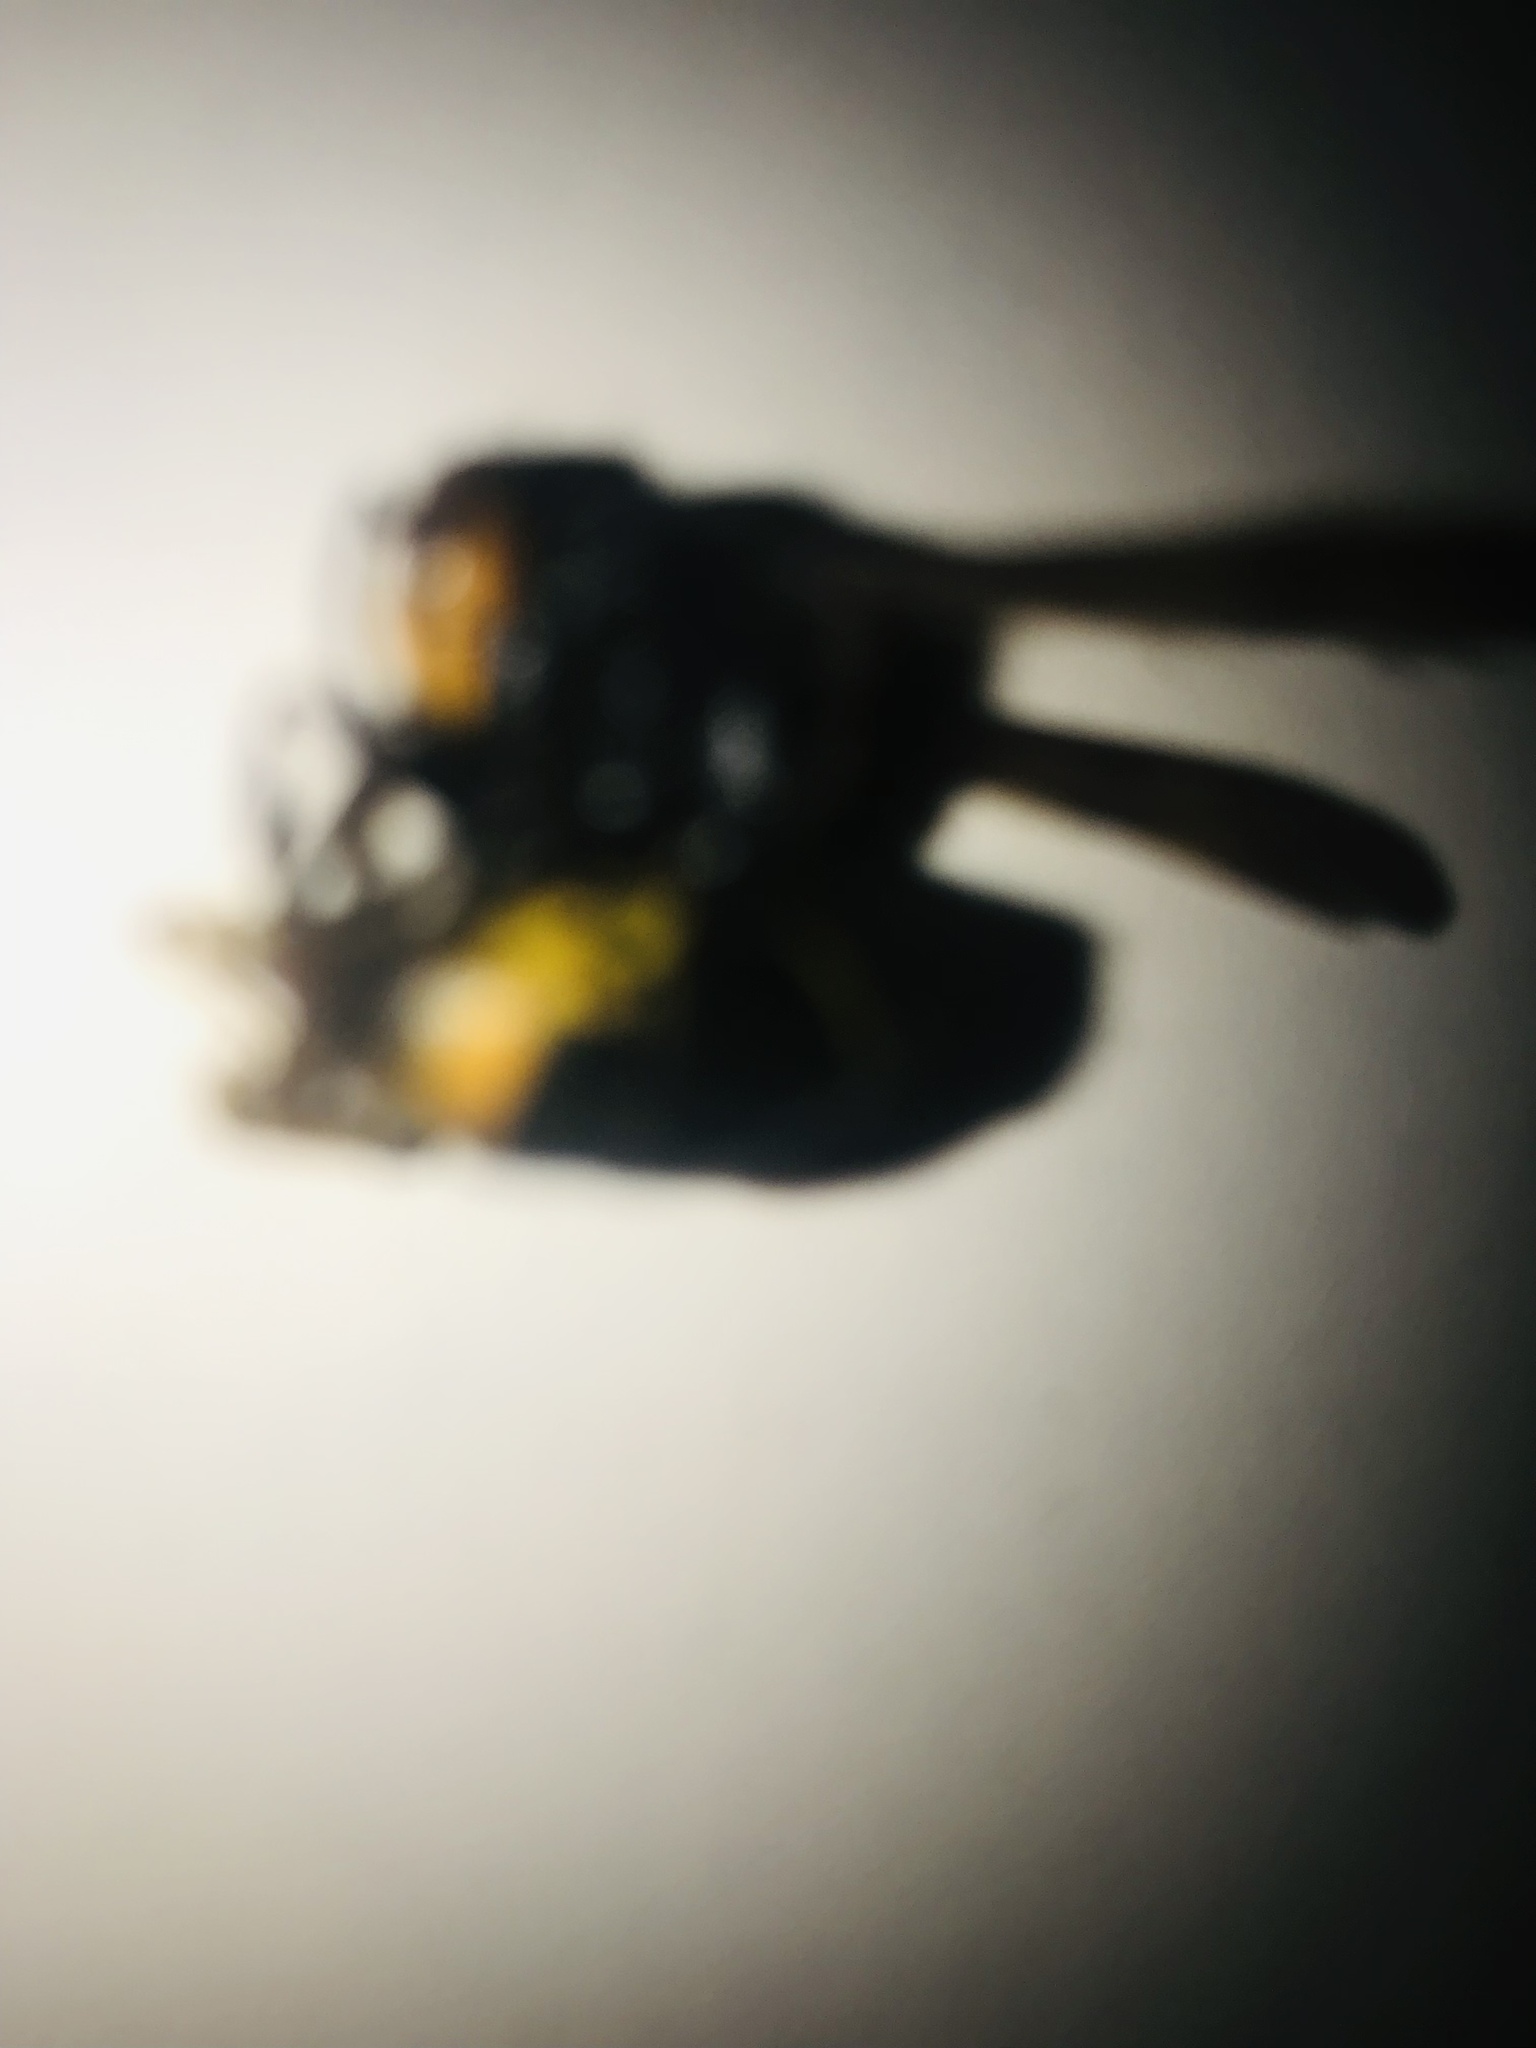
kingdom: Animalia
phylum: Arthropoda
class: Insecta
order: Hymenoptera
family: Vespidae
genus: Vespa
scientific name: Vespa velutina
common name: Asian hornet
